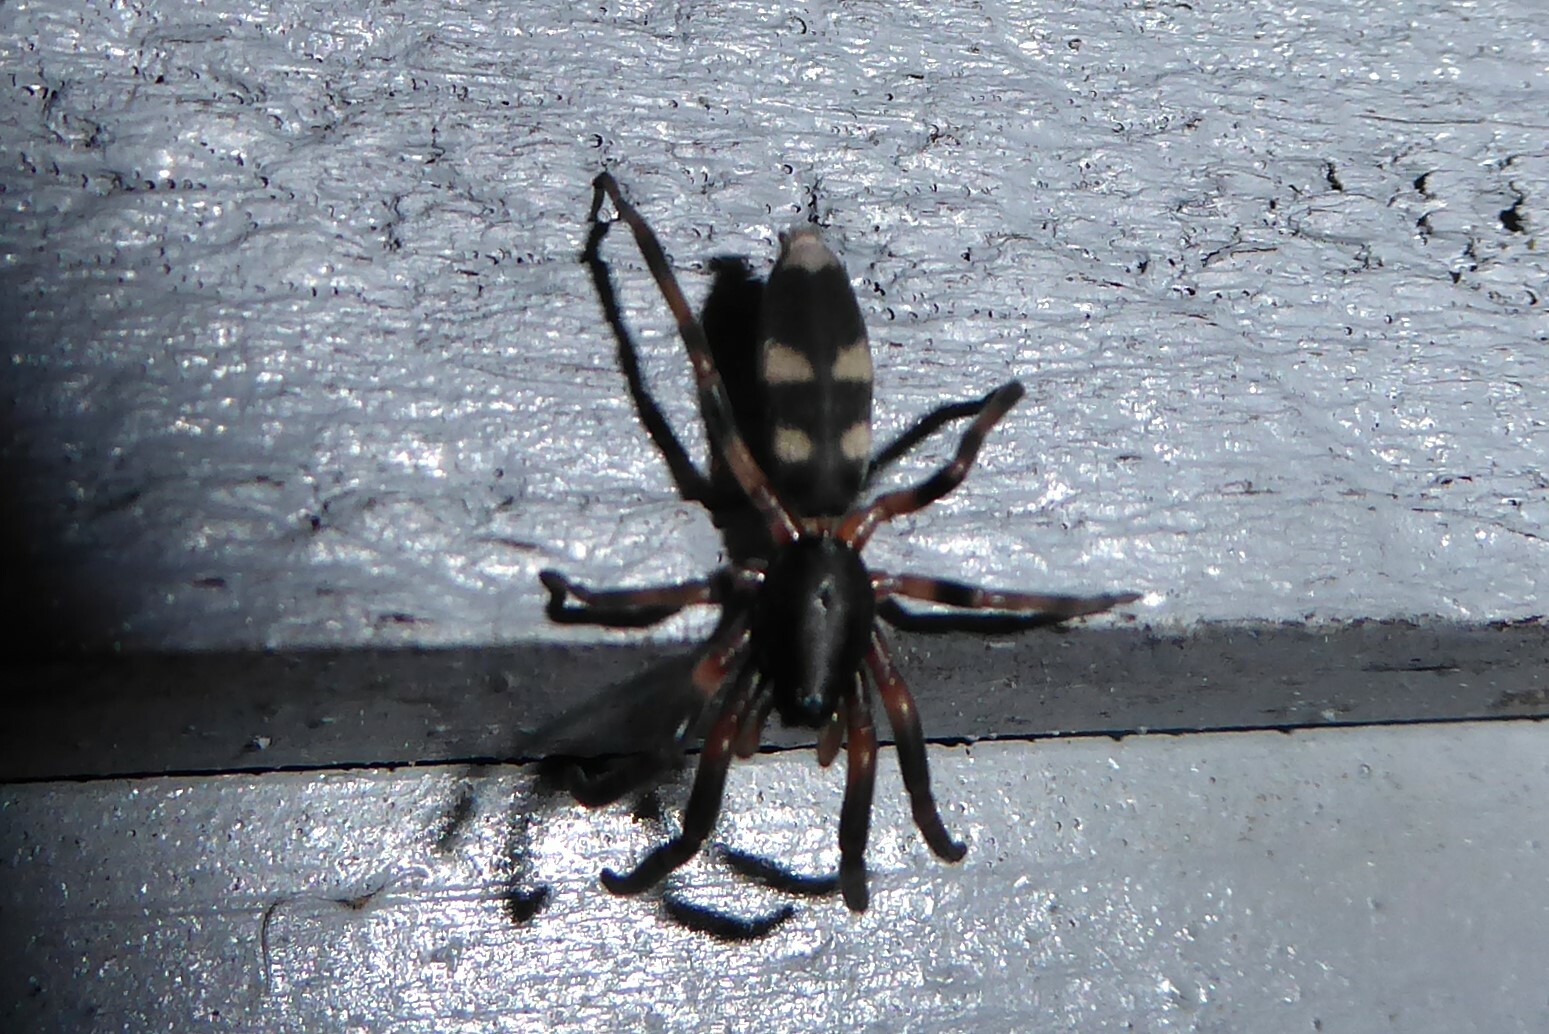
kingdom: Animalia
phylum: Arthropoda
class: Arachnida
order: Araneae
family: Lamponidae
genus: Lampona
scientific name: Lampona cylindrata
